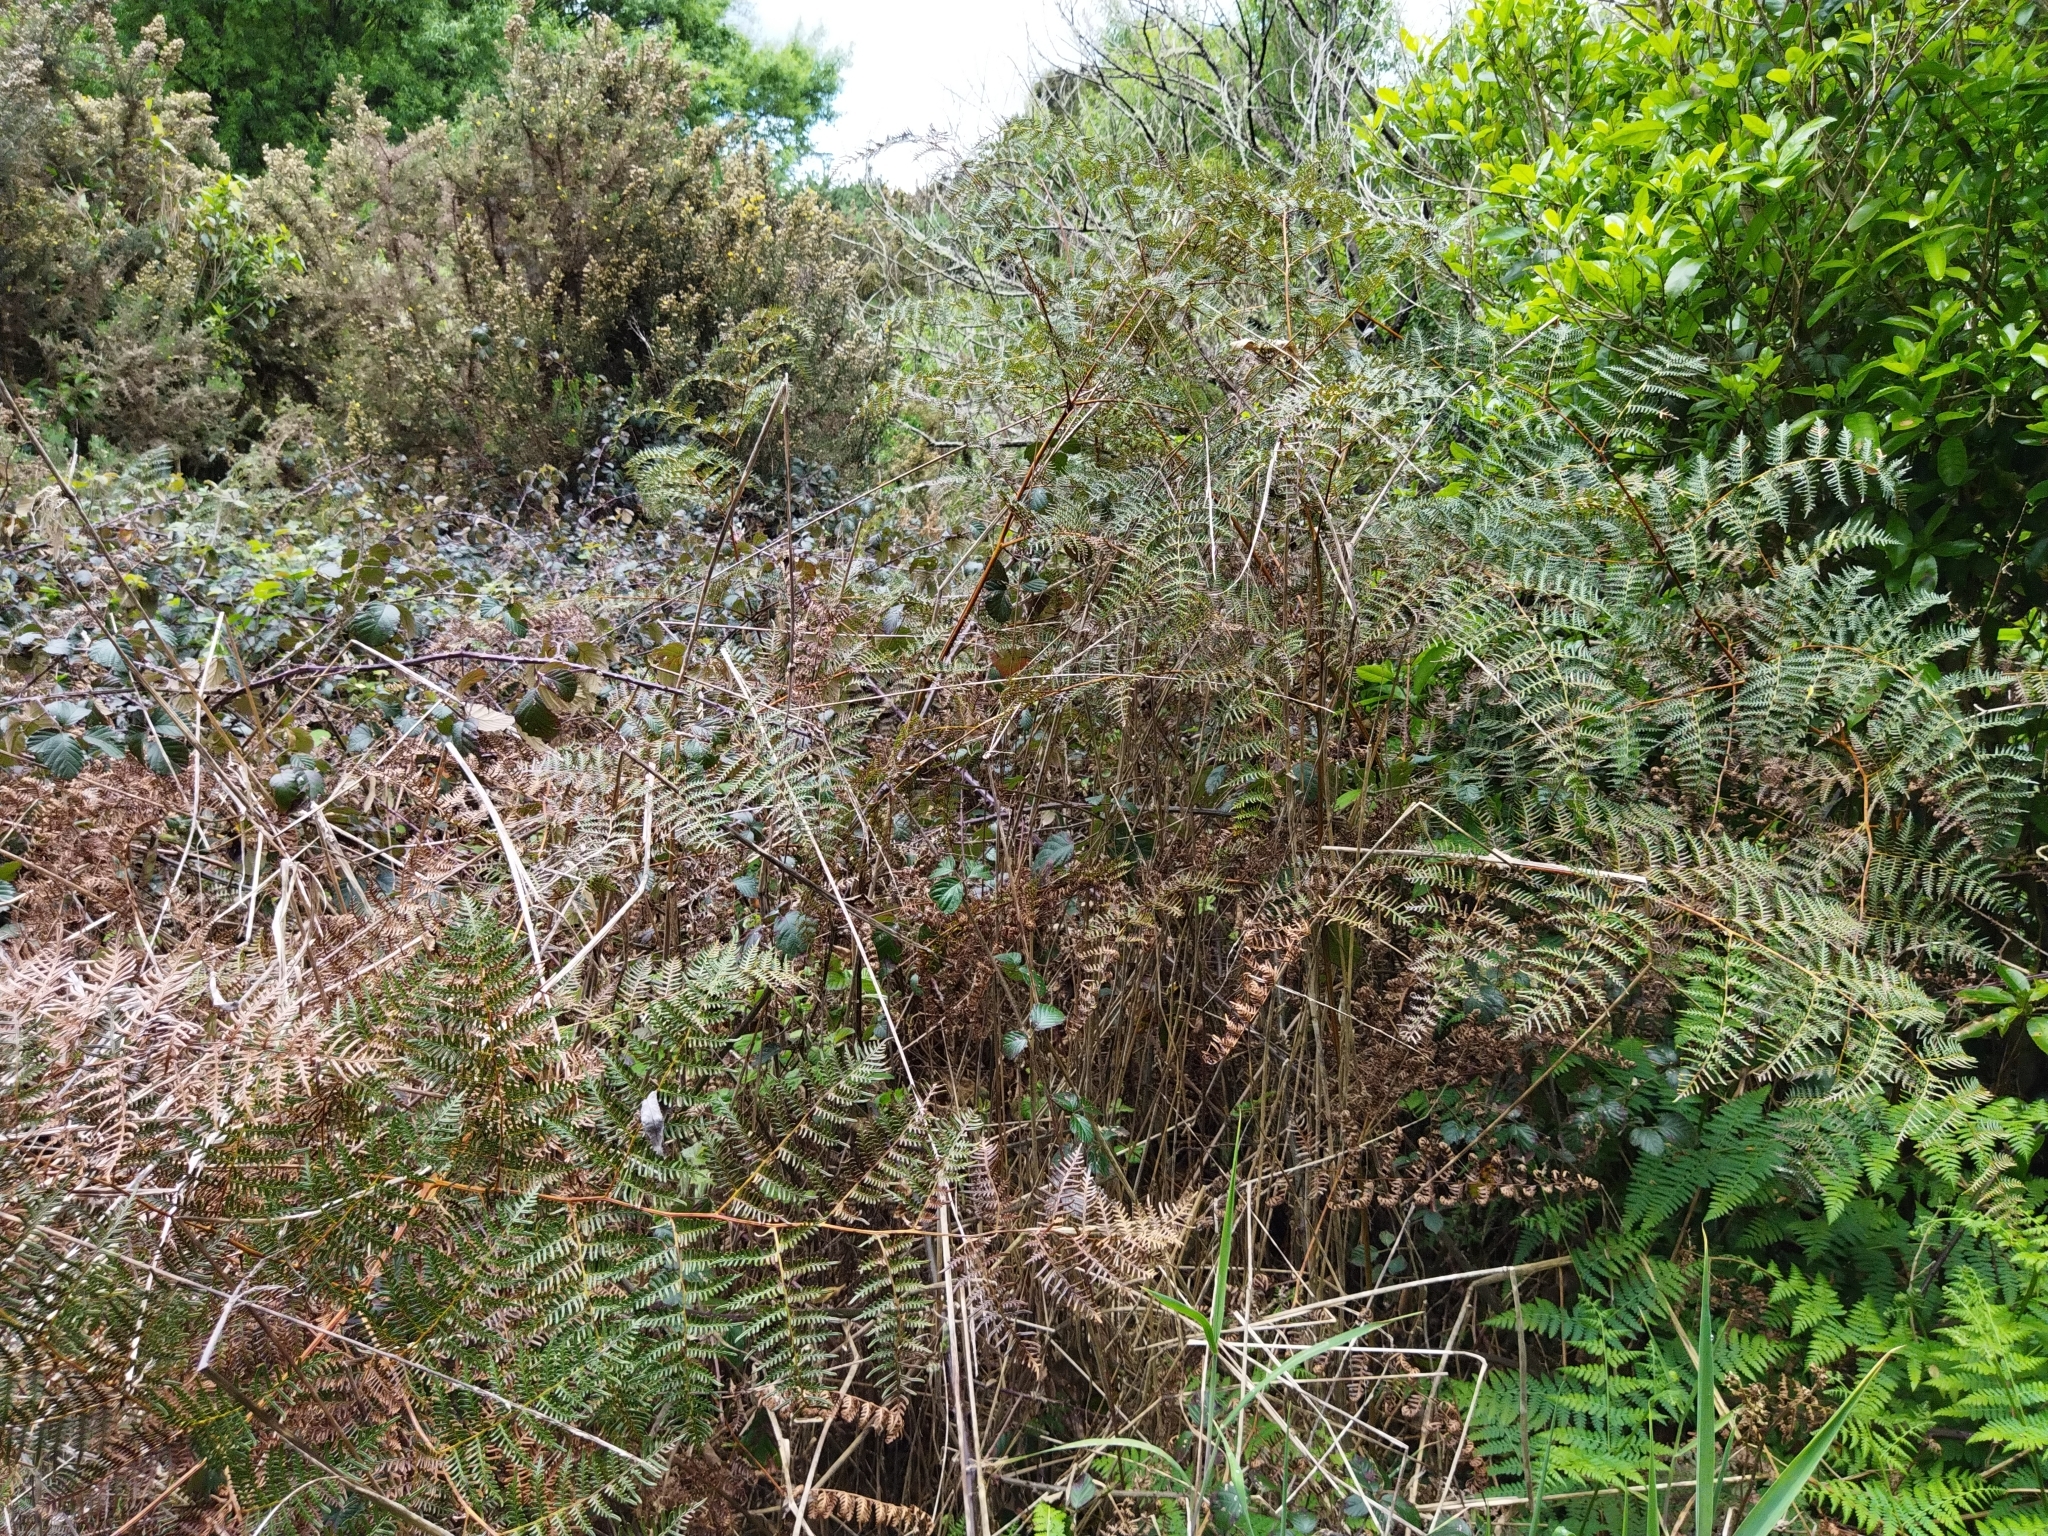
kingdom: Plantae
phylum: Tracheophyta
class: Polypodiopsida
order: Polypodiales
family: Dennstaedtiaceae
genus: Pteridium
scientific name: Pteridium esculentum
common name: Bracken fern
